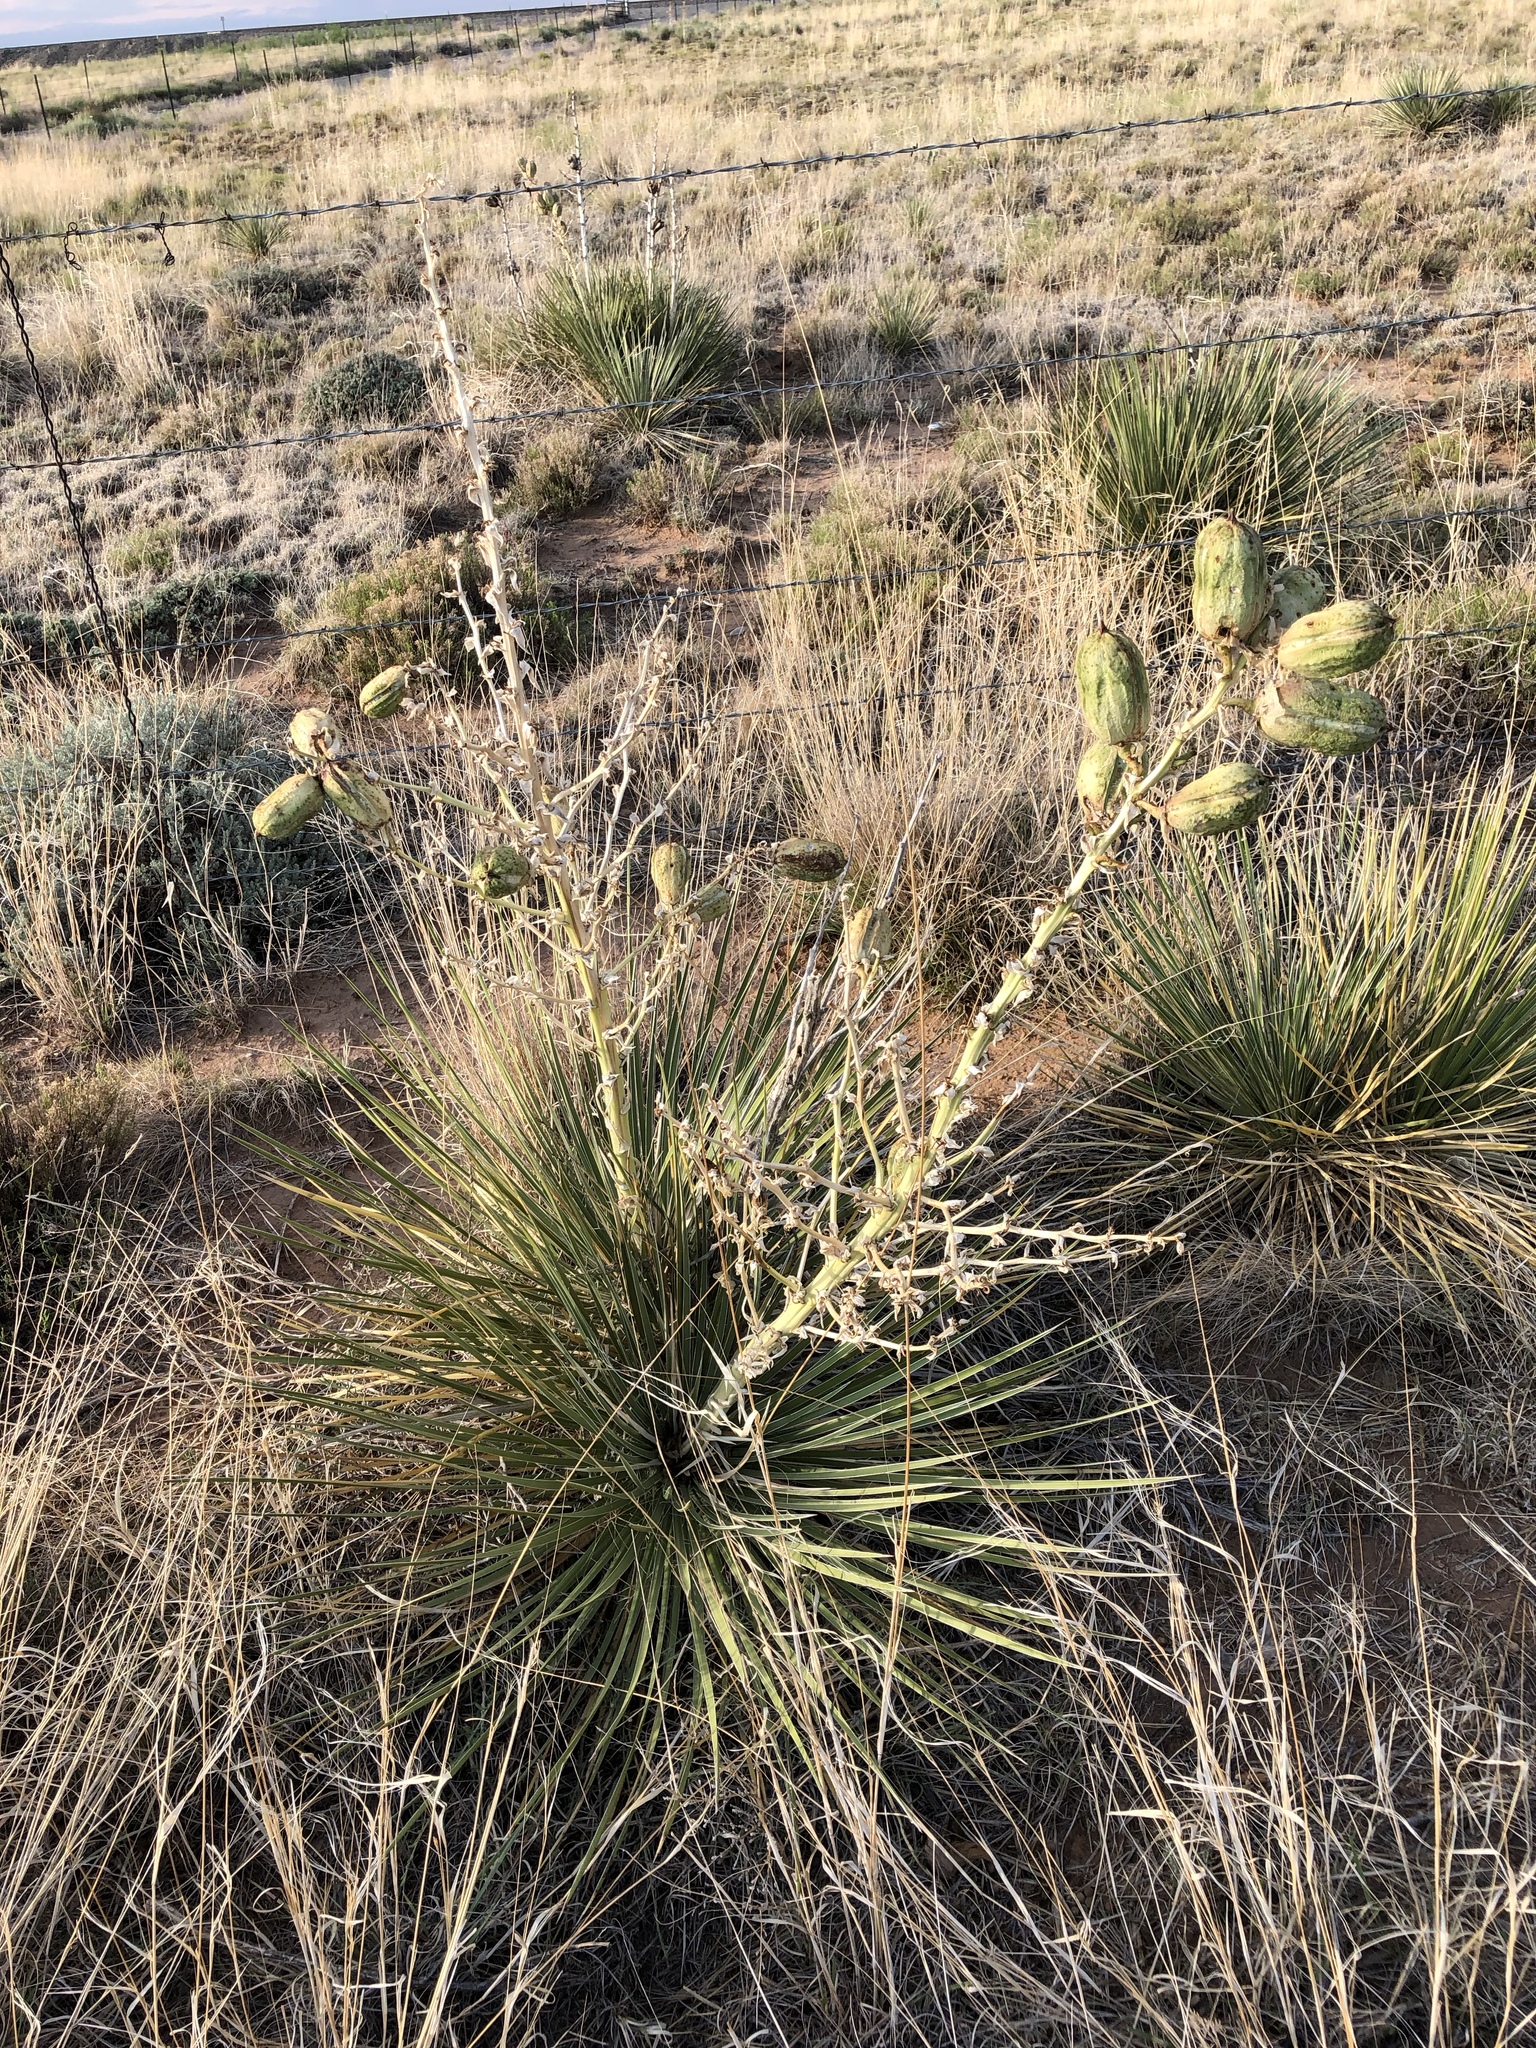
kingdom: Plantae
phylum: Tracheophyta
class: Liliopsida
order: Asparagales
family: Asparagaceae
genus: Yucca
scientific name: Yucca glauca
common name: Great plains yucca
